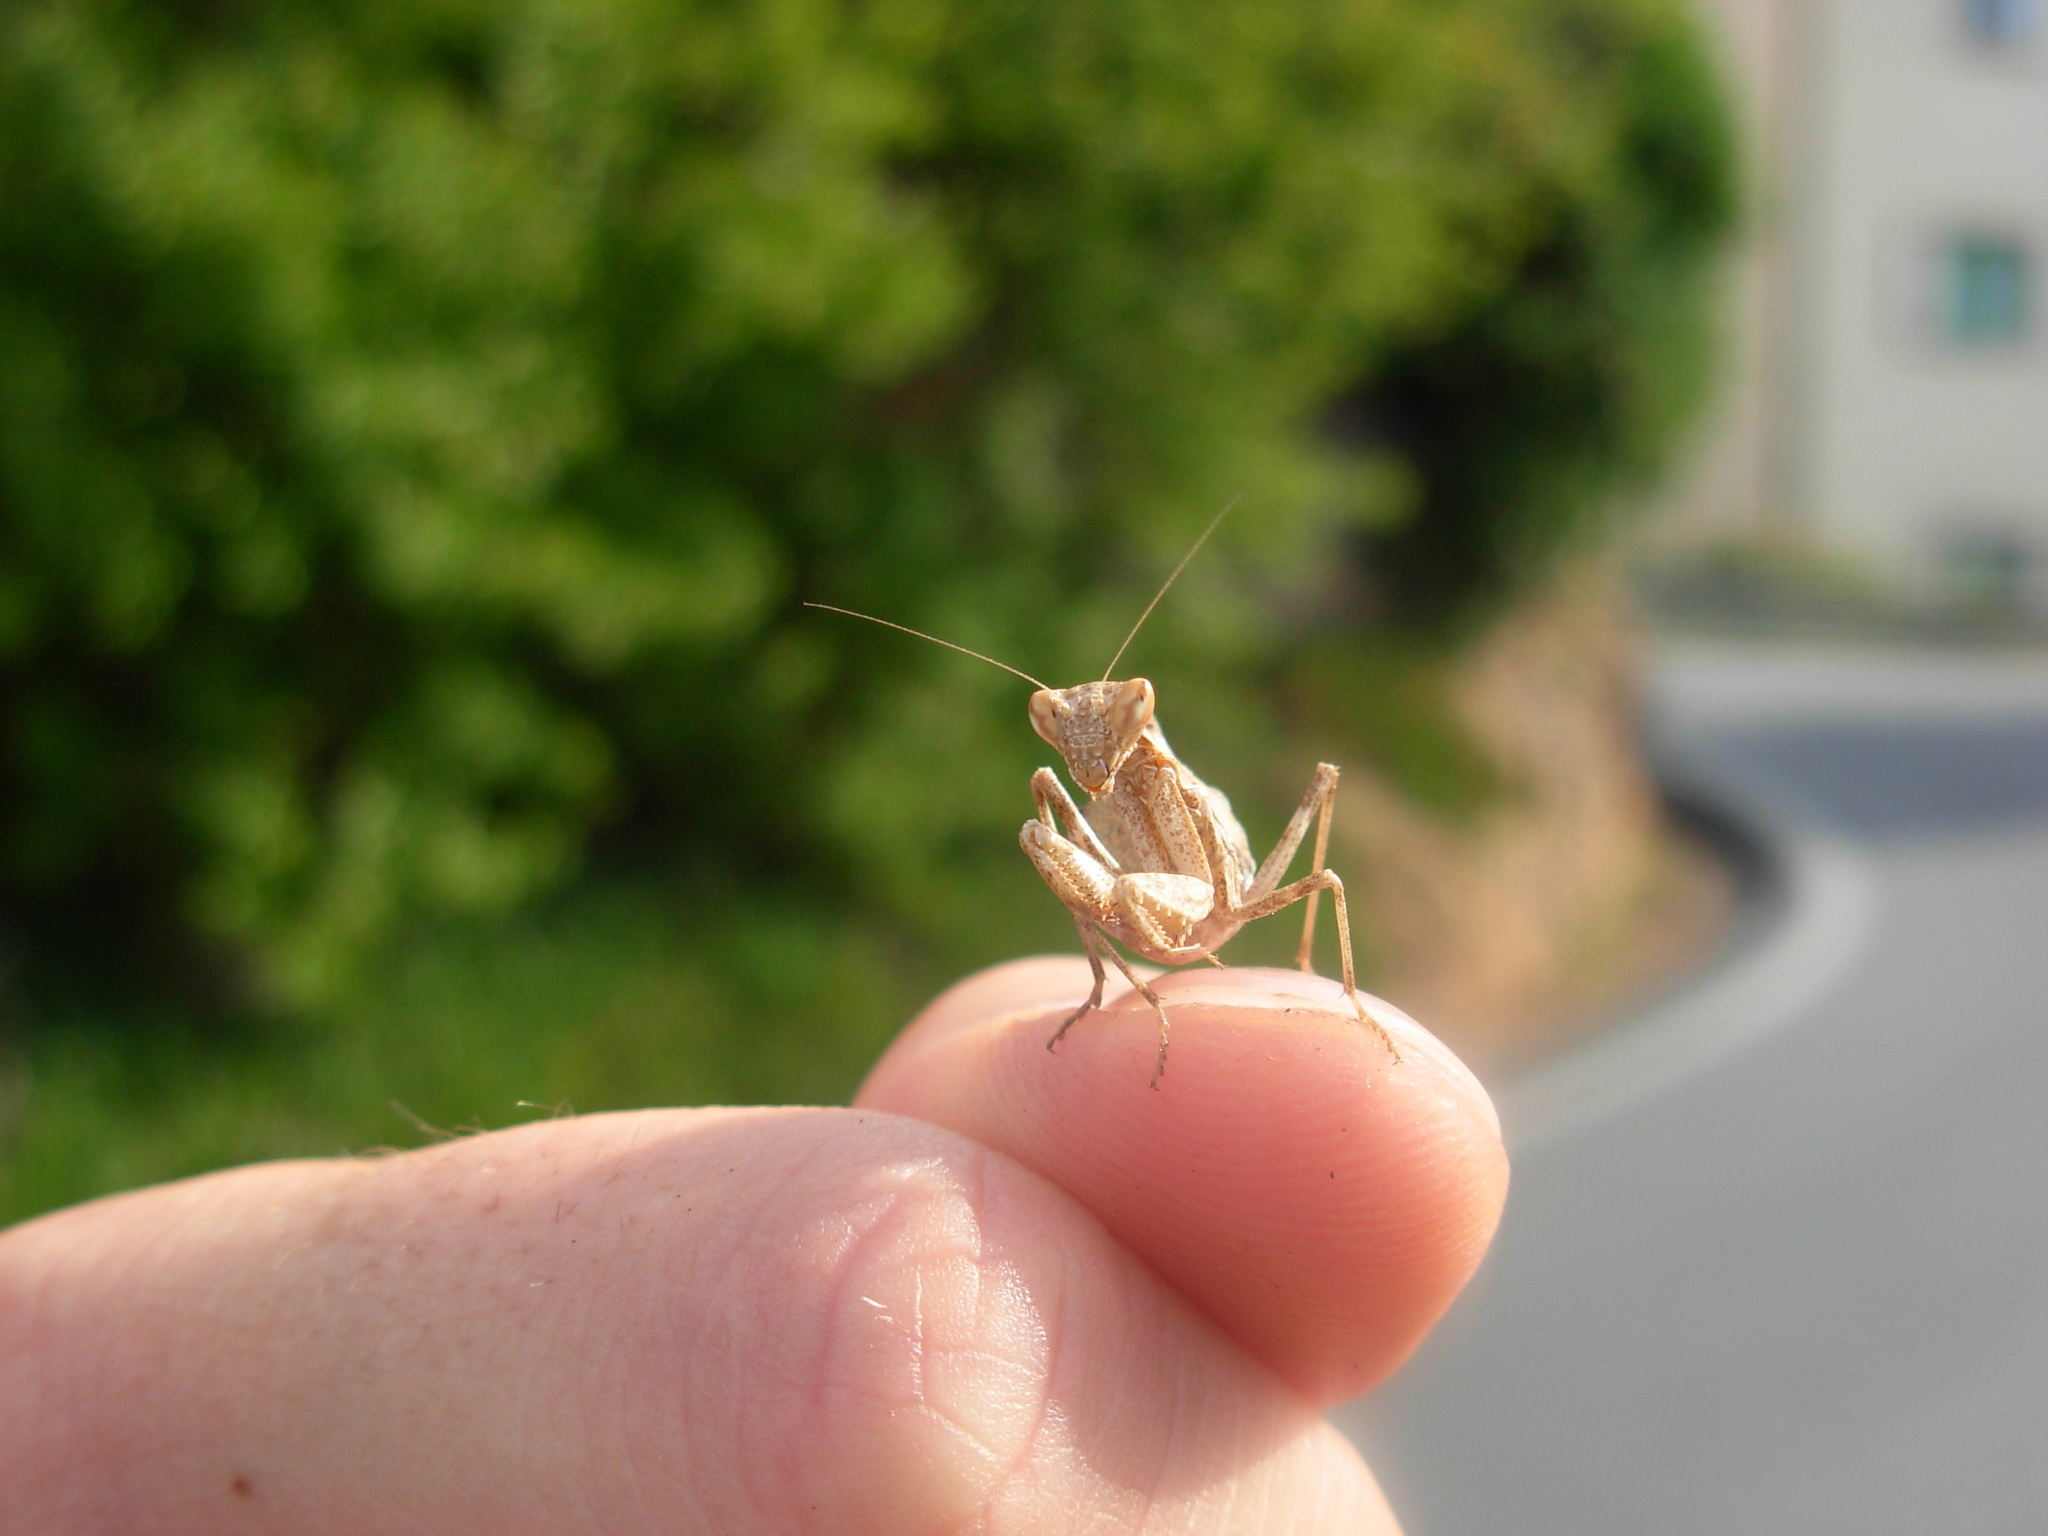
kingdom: Animalia
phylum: Arthropoda
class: Insecta
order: Mantodea
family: Amelidae
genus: Ameles
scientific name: Ameles spallanzania
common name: European dwarf mantis
